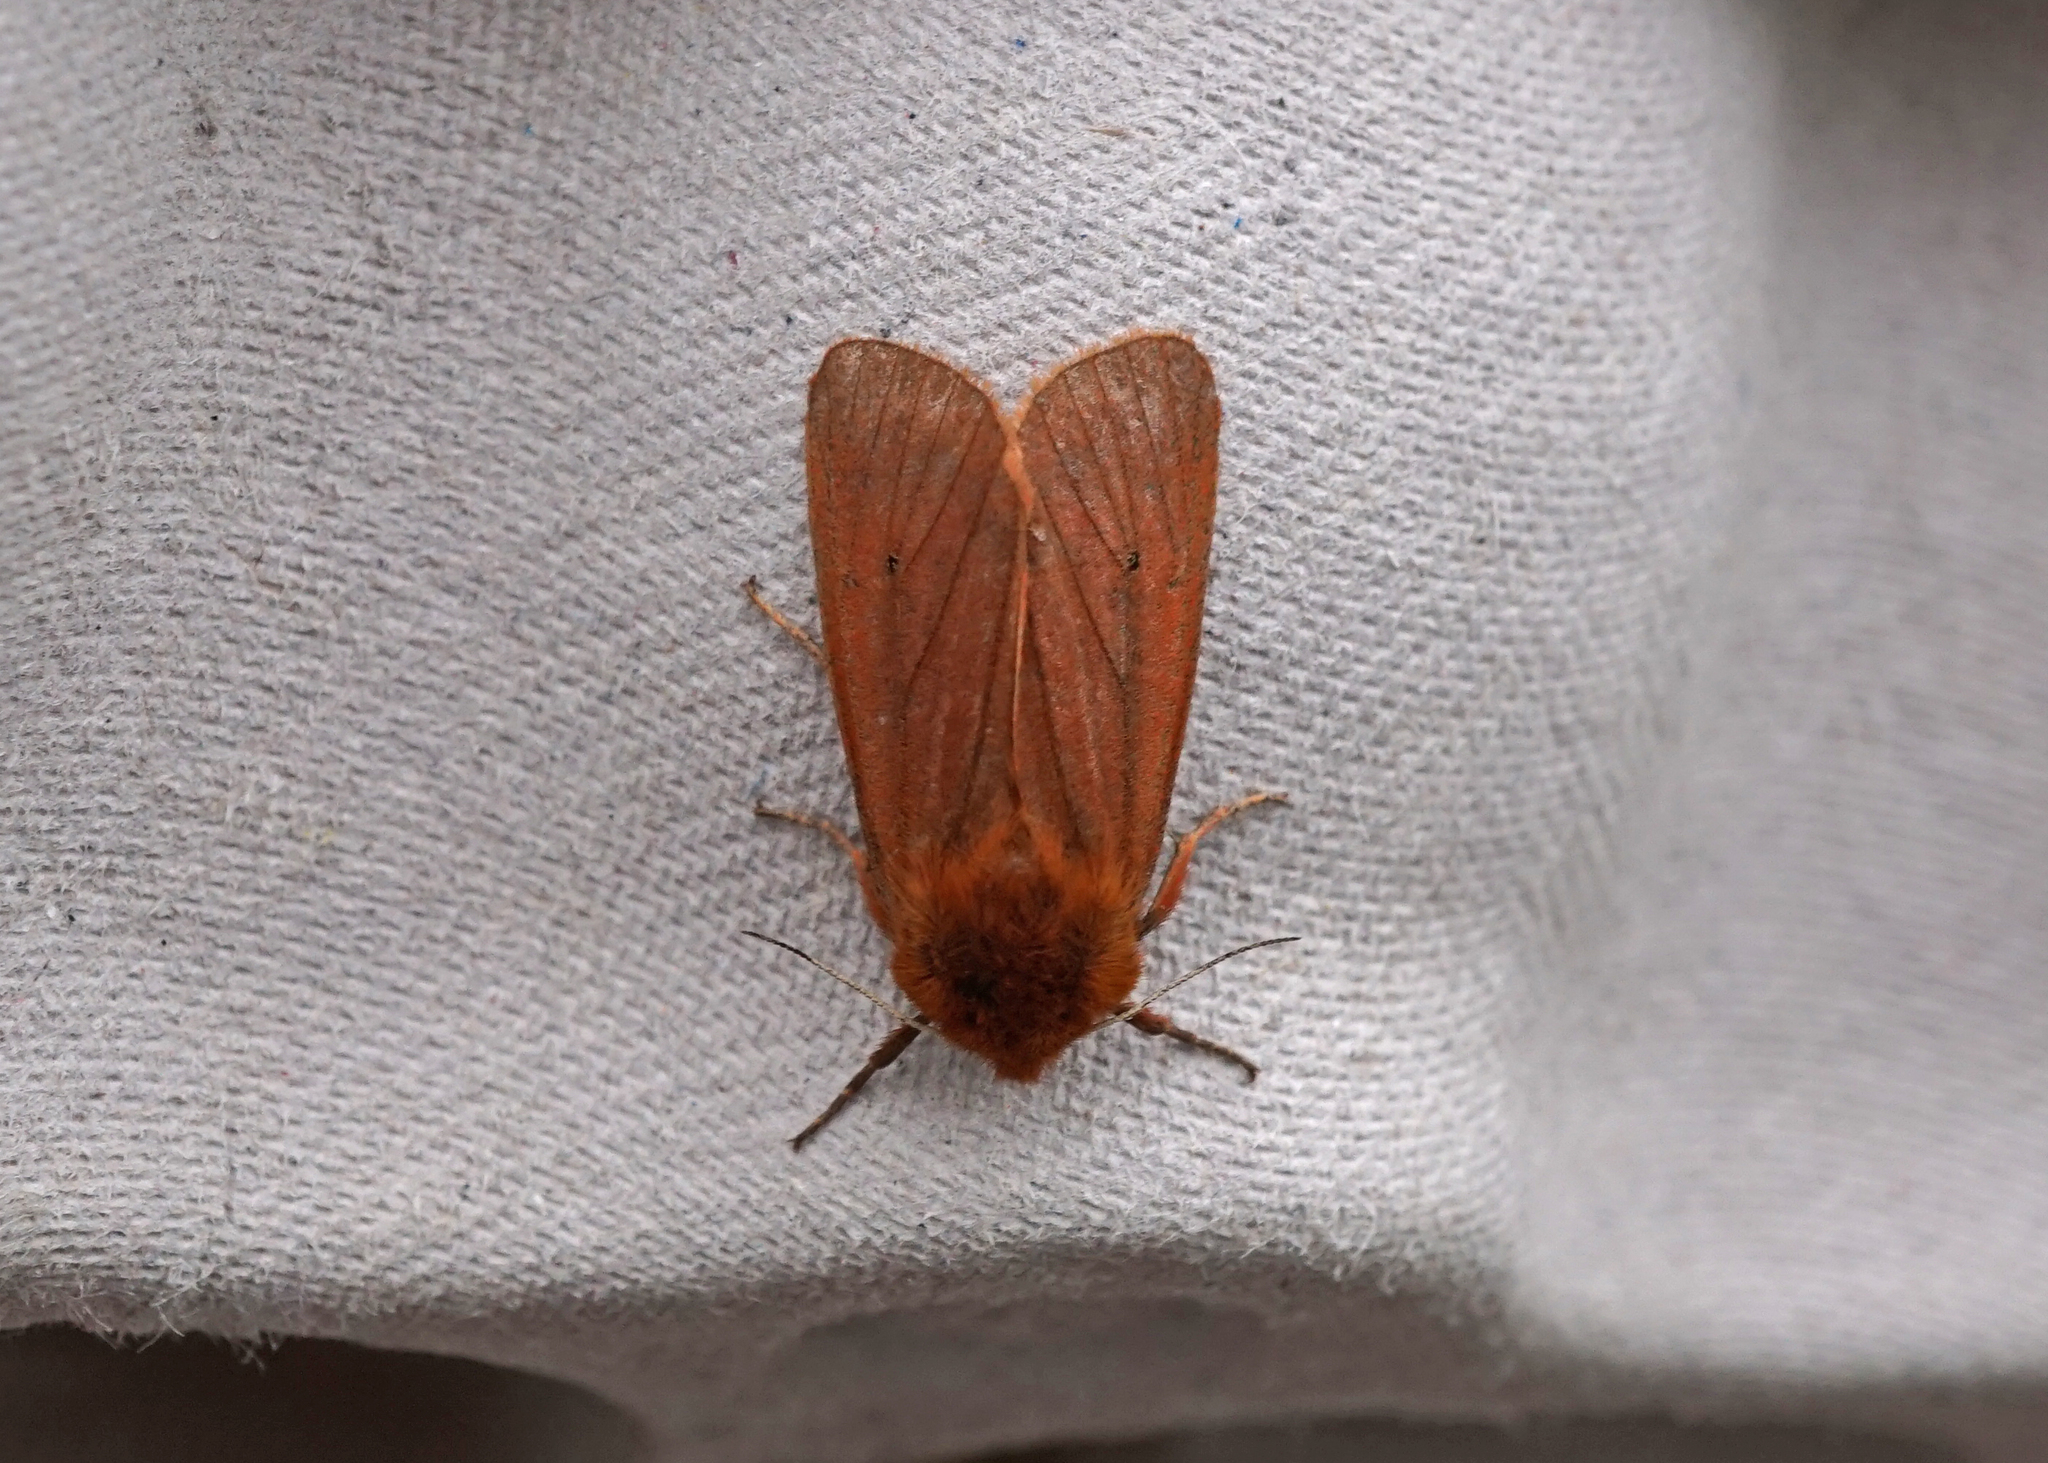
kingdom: Animalia
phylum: Arthropoda
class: Insecta
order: Lepidoptera
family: Erebidae
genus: Phragmatobia
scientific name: Phragmatobia fuliginosa
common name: Ruby tiger
